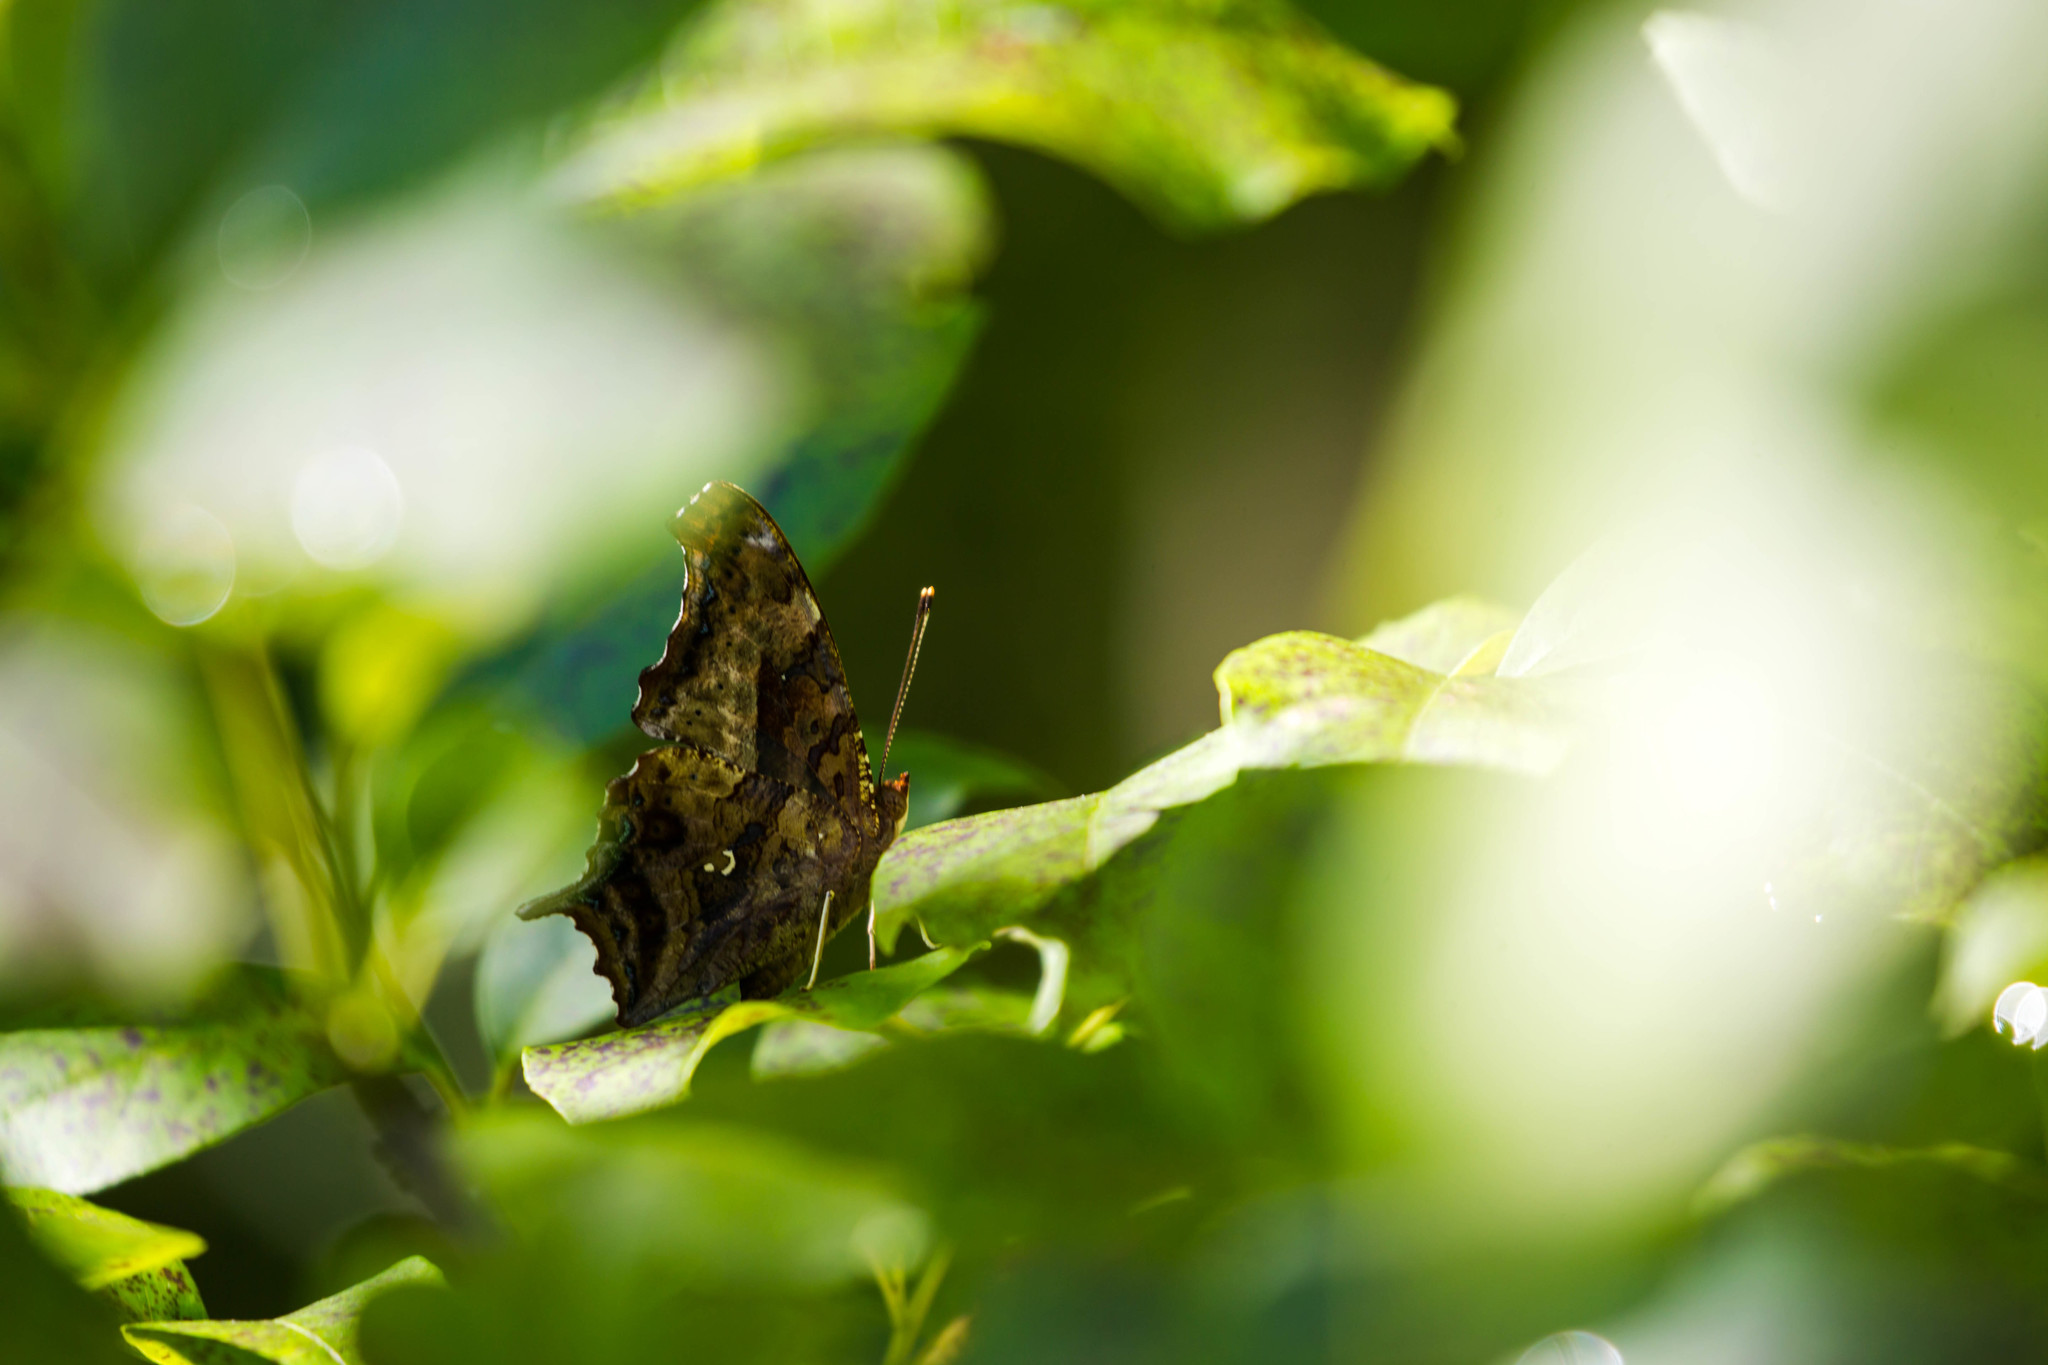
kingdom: Animalia
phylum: Arthropoda
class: Insecta
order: Lepidoptera
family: Nymphalidae
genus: Polygonia
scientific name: Polygonia interrogationis
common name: Question mark
